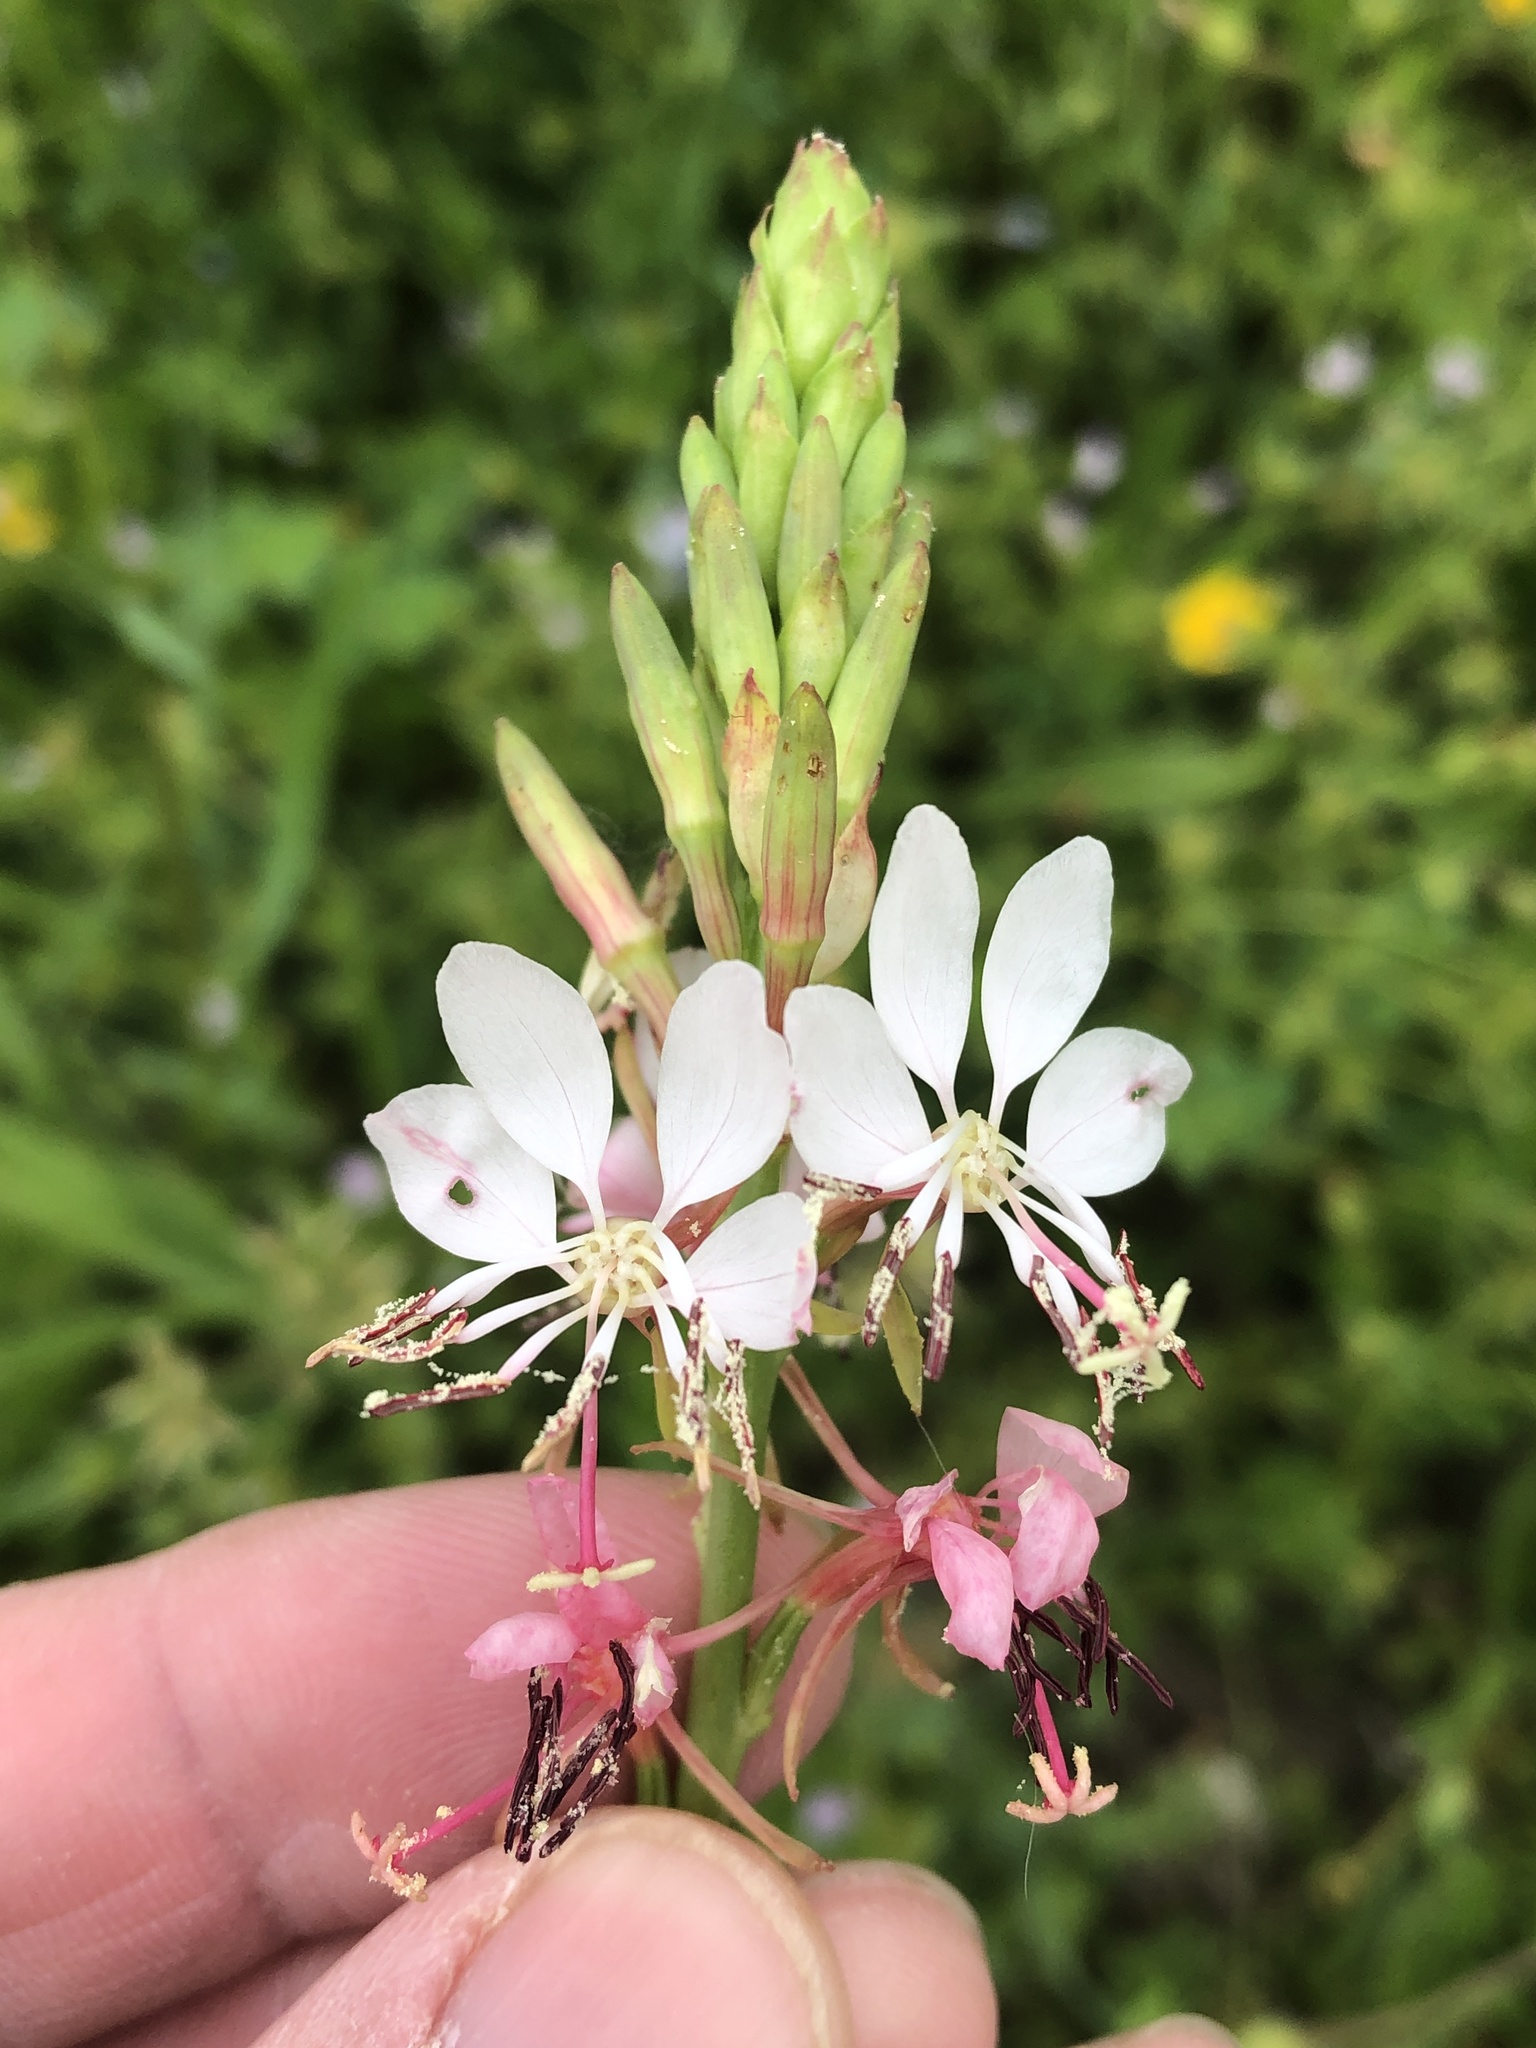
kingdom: Plantae
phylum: Tracheophyta
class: Magnoliopsida
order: Myrtales
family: Onagraceae
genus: Oenothera
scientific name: Oenothera suffulta
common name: Kisses
